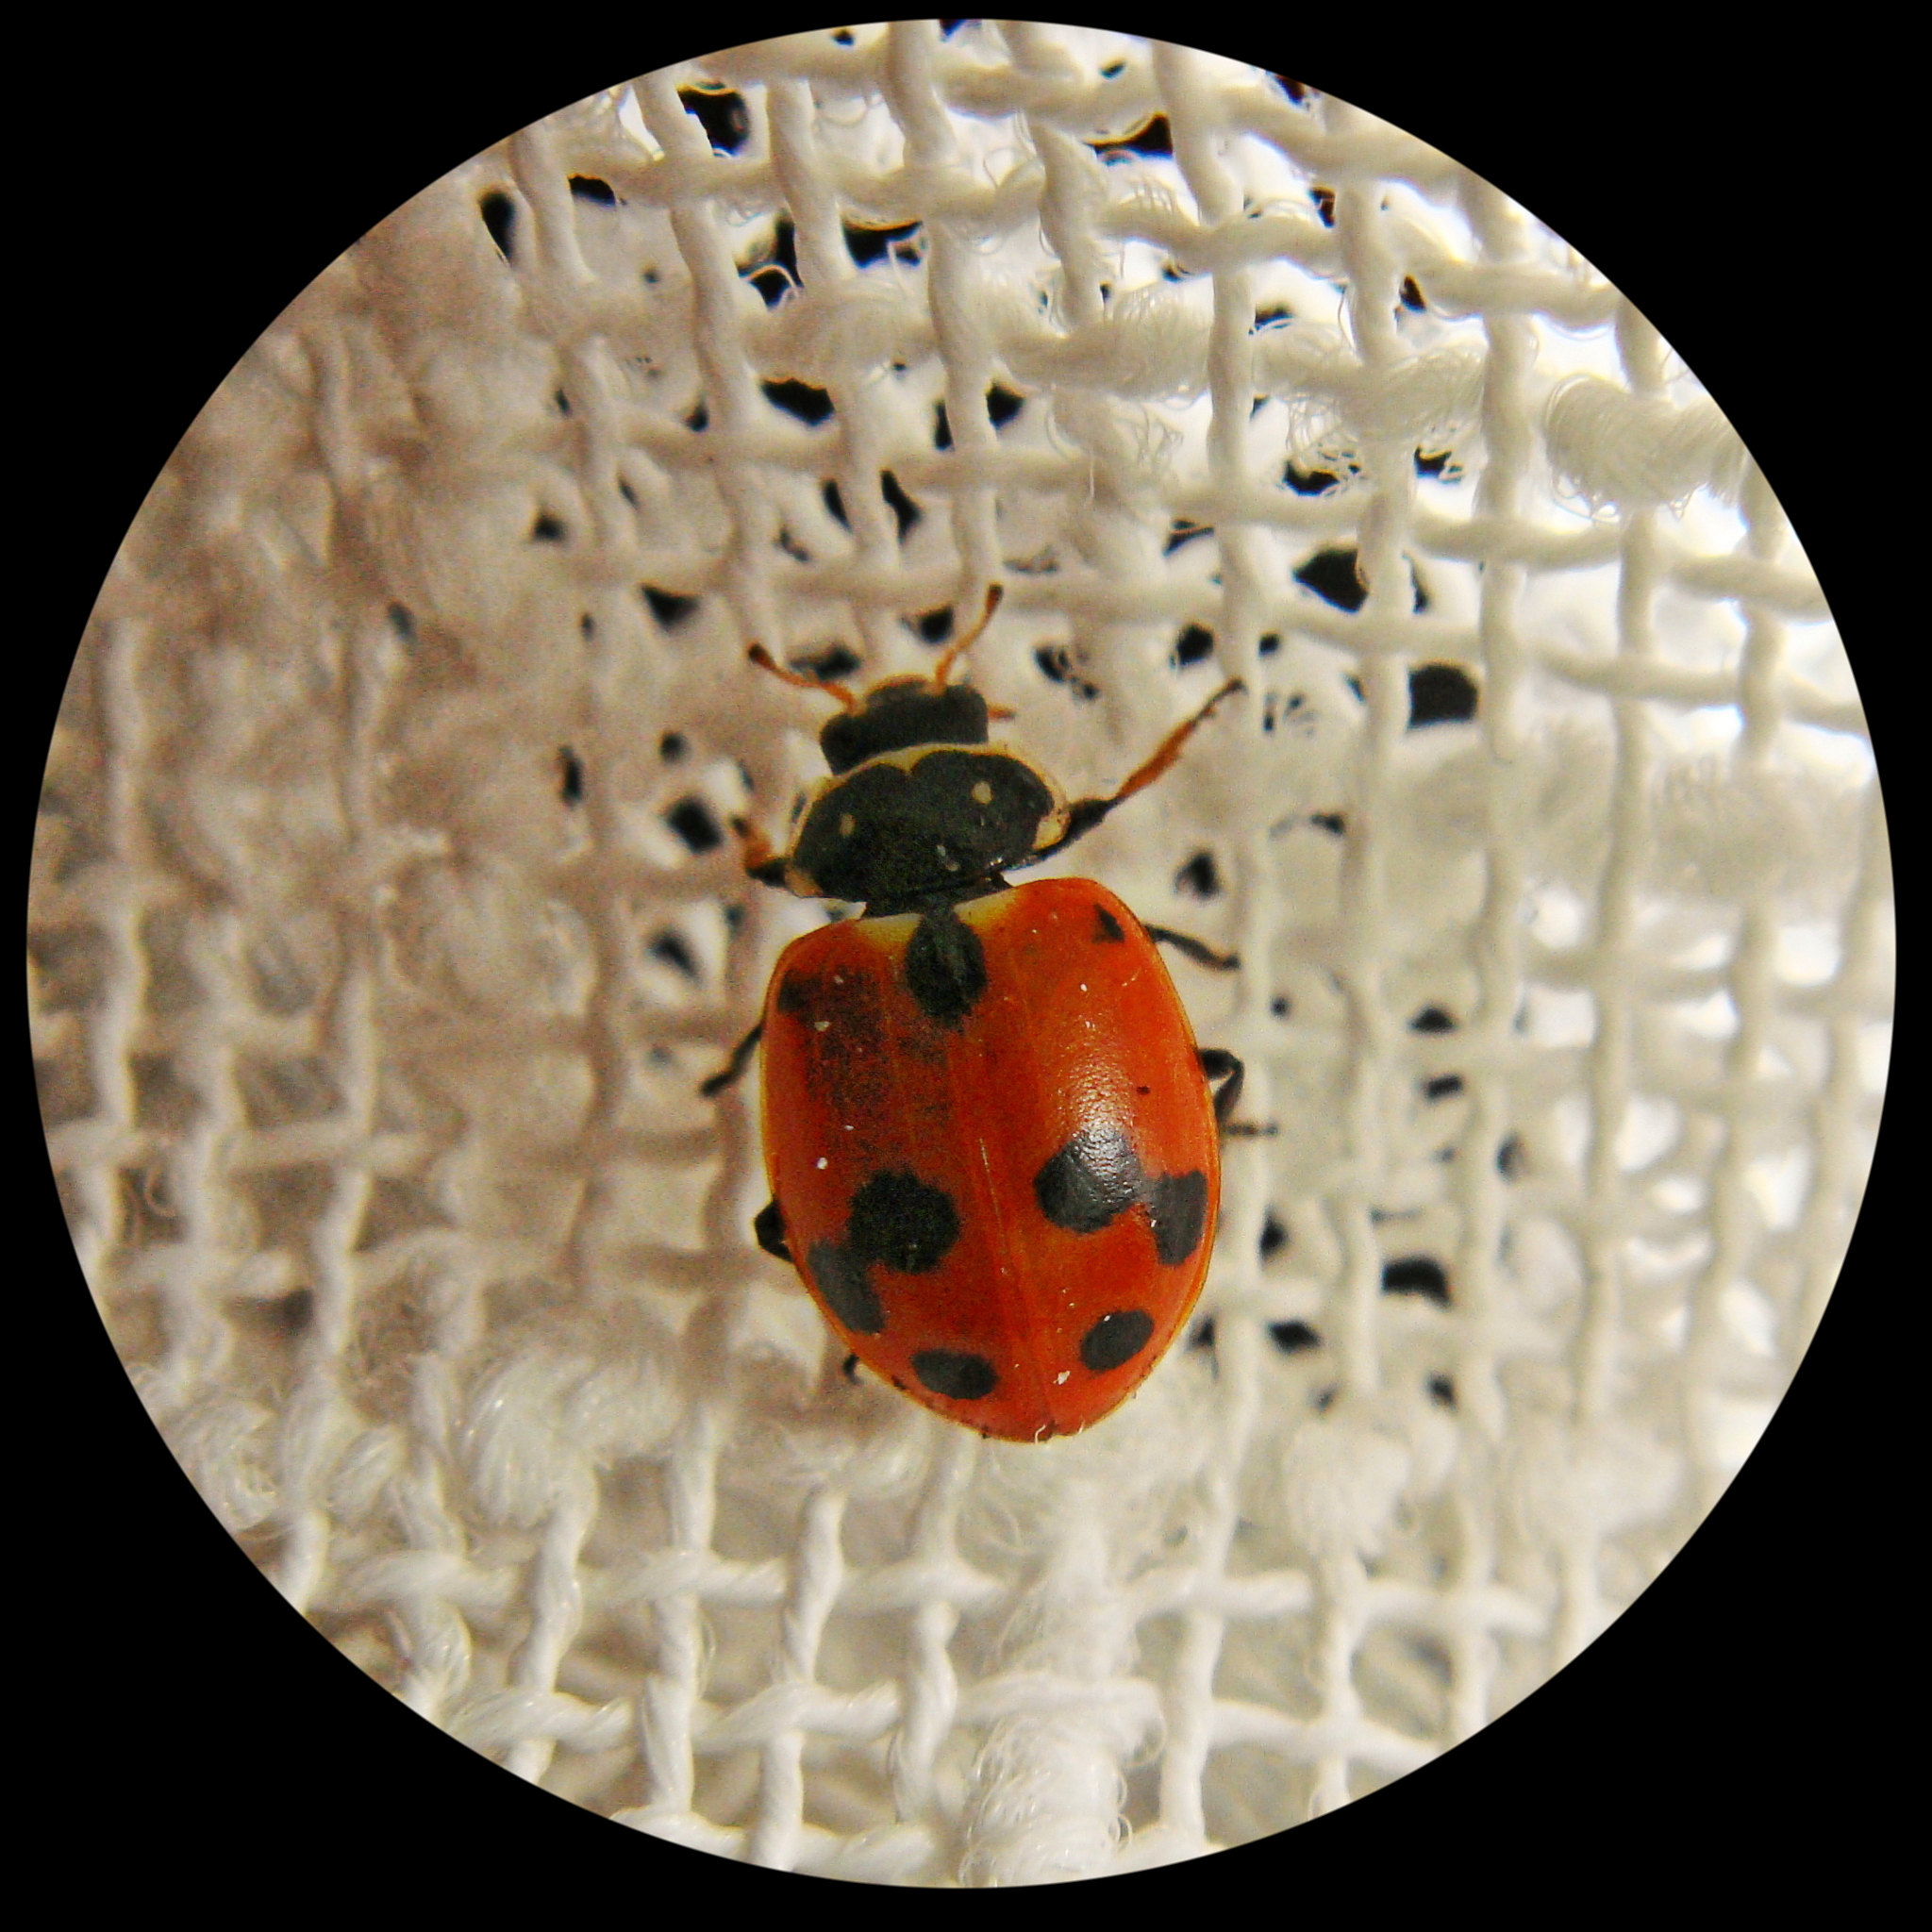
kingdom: Animalia
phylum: Arthropoda
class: Insecta
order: Coleoptera
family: Coccinellidae
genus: Hippodamia
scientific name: Hippodamia variegata
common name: Ladybird beetle
